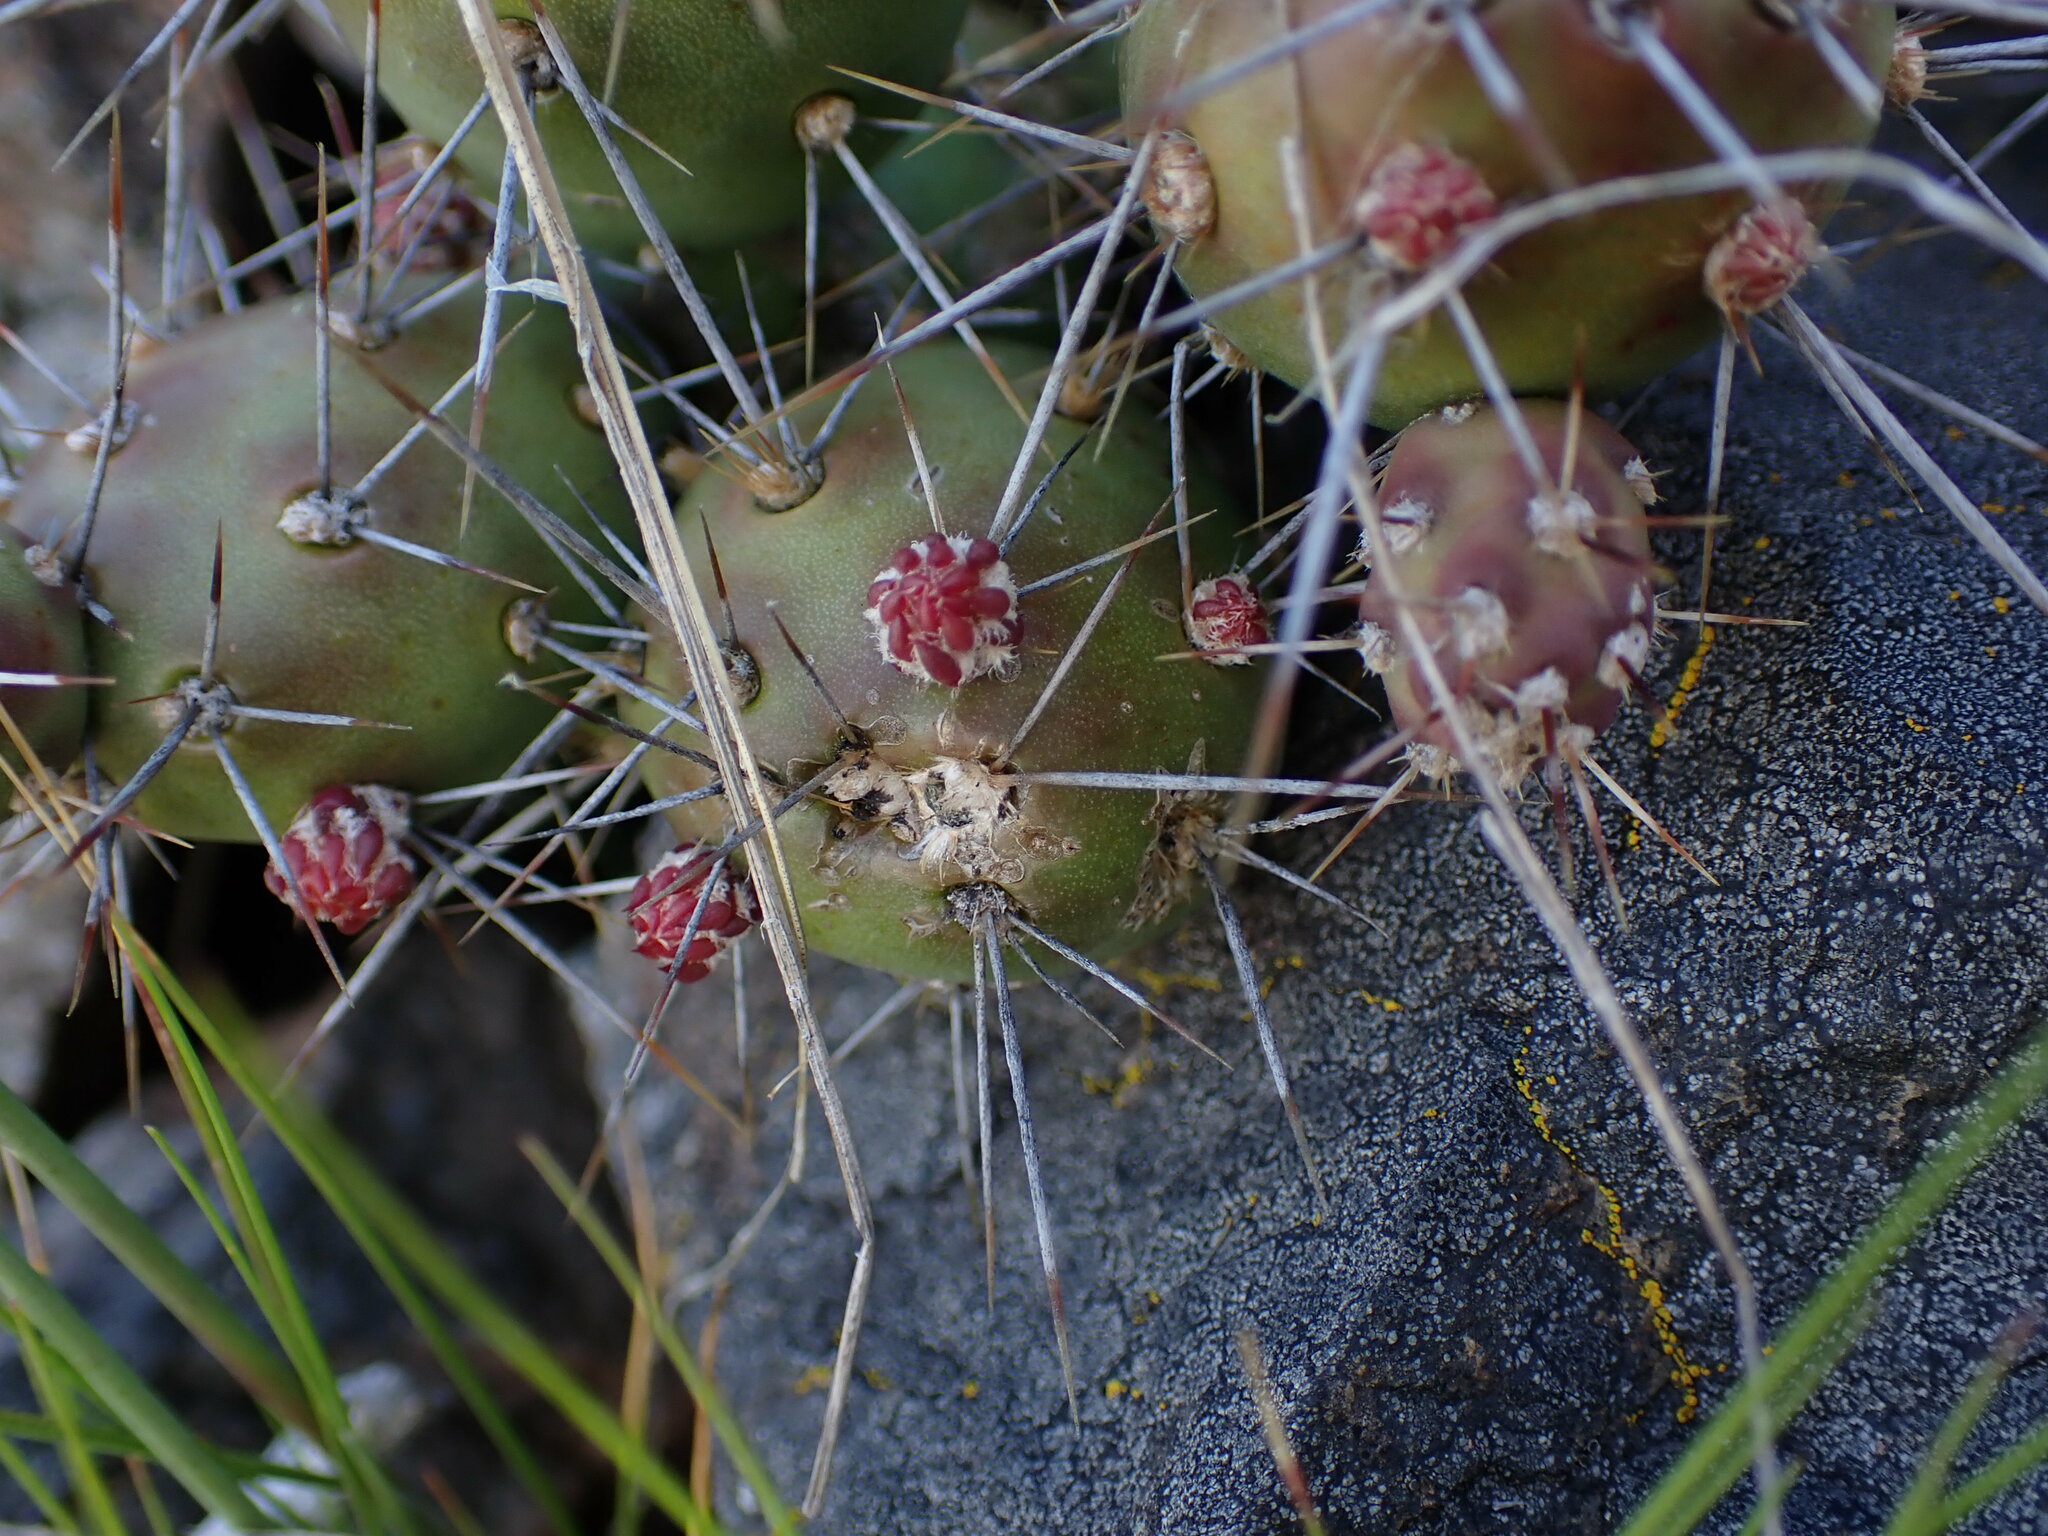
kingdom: Plantae
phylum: Tracheophyta
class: Magnoliopsida
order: Caryophyllales
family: Cactaceae
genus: Opuntia
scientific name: Opuntia fragilis
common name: Brittle cactus
